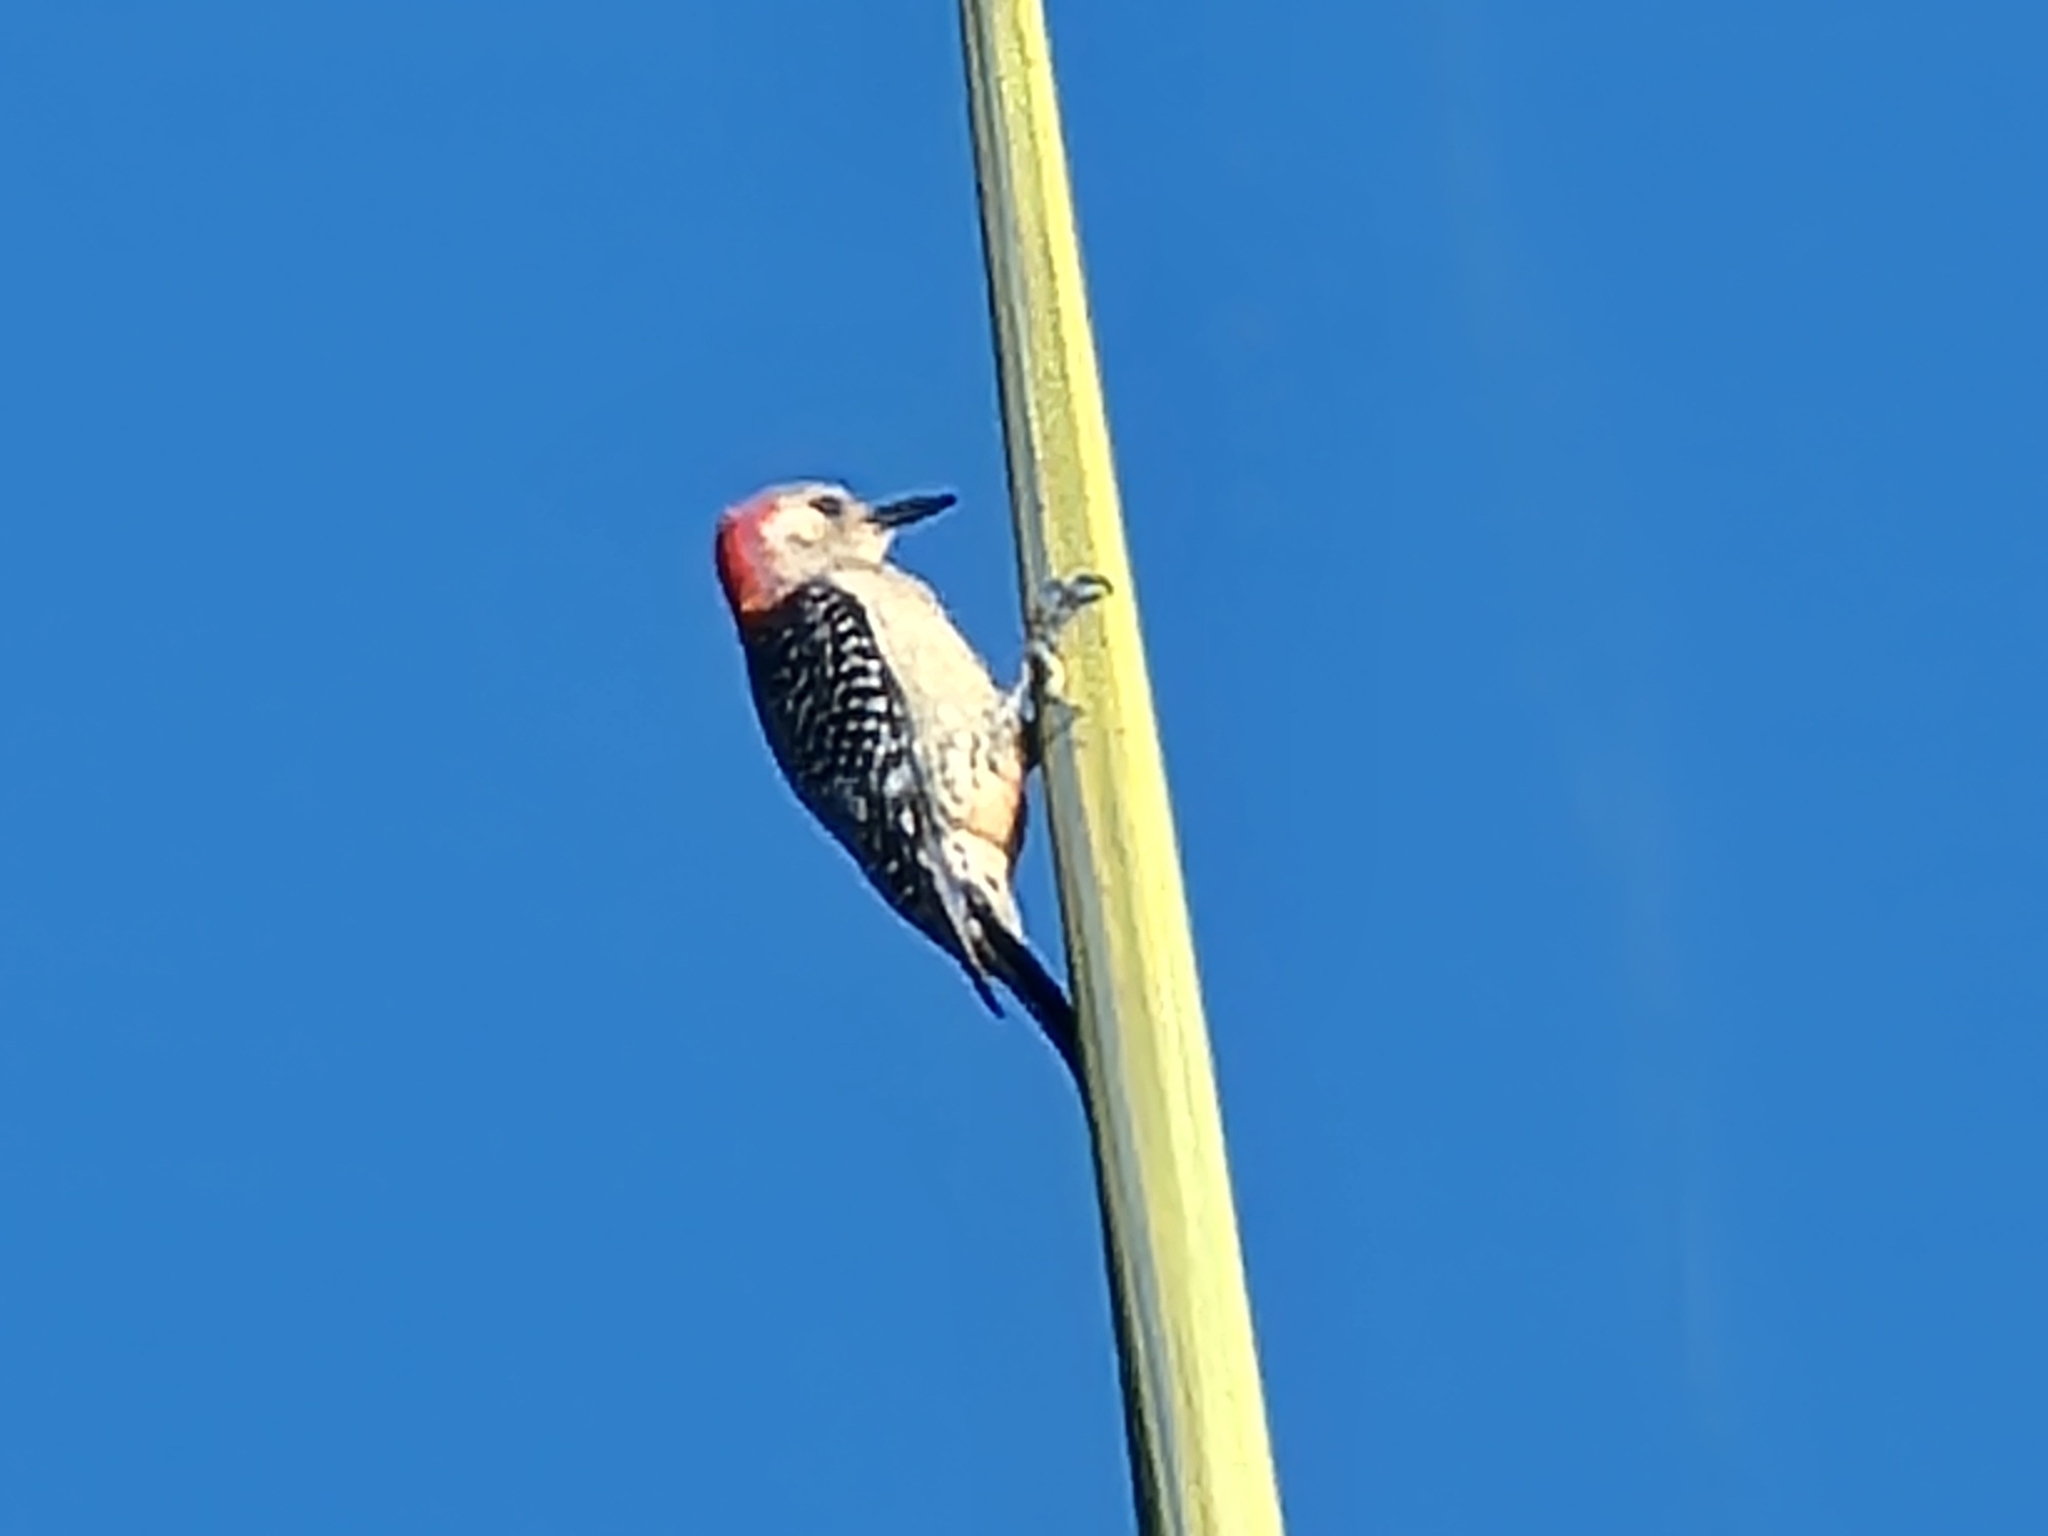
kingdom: Animalia
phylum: Chordata
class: Aves
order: Piciformes
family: Picidae
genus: Melanerpes
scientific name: Melanerpes carolinus
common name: Red-bellied woodpecker
